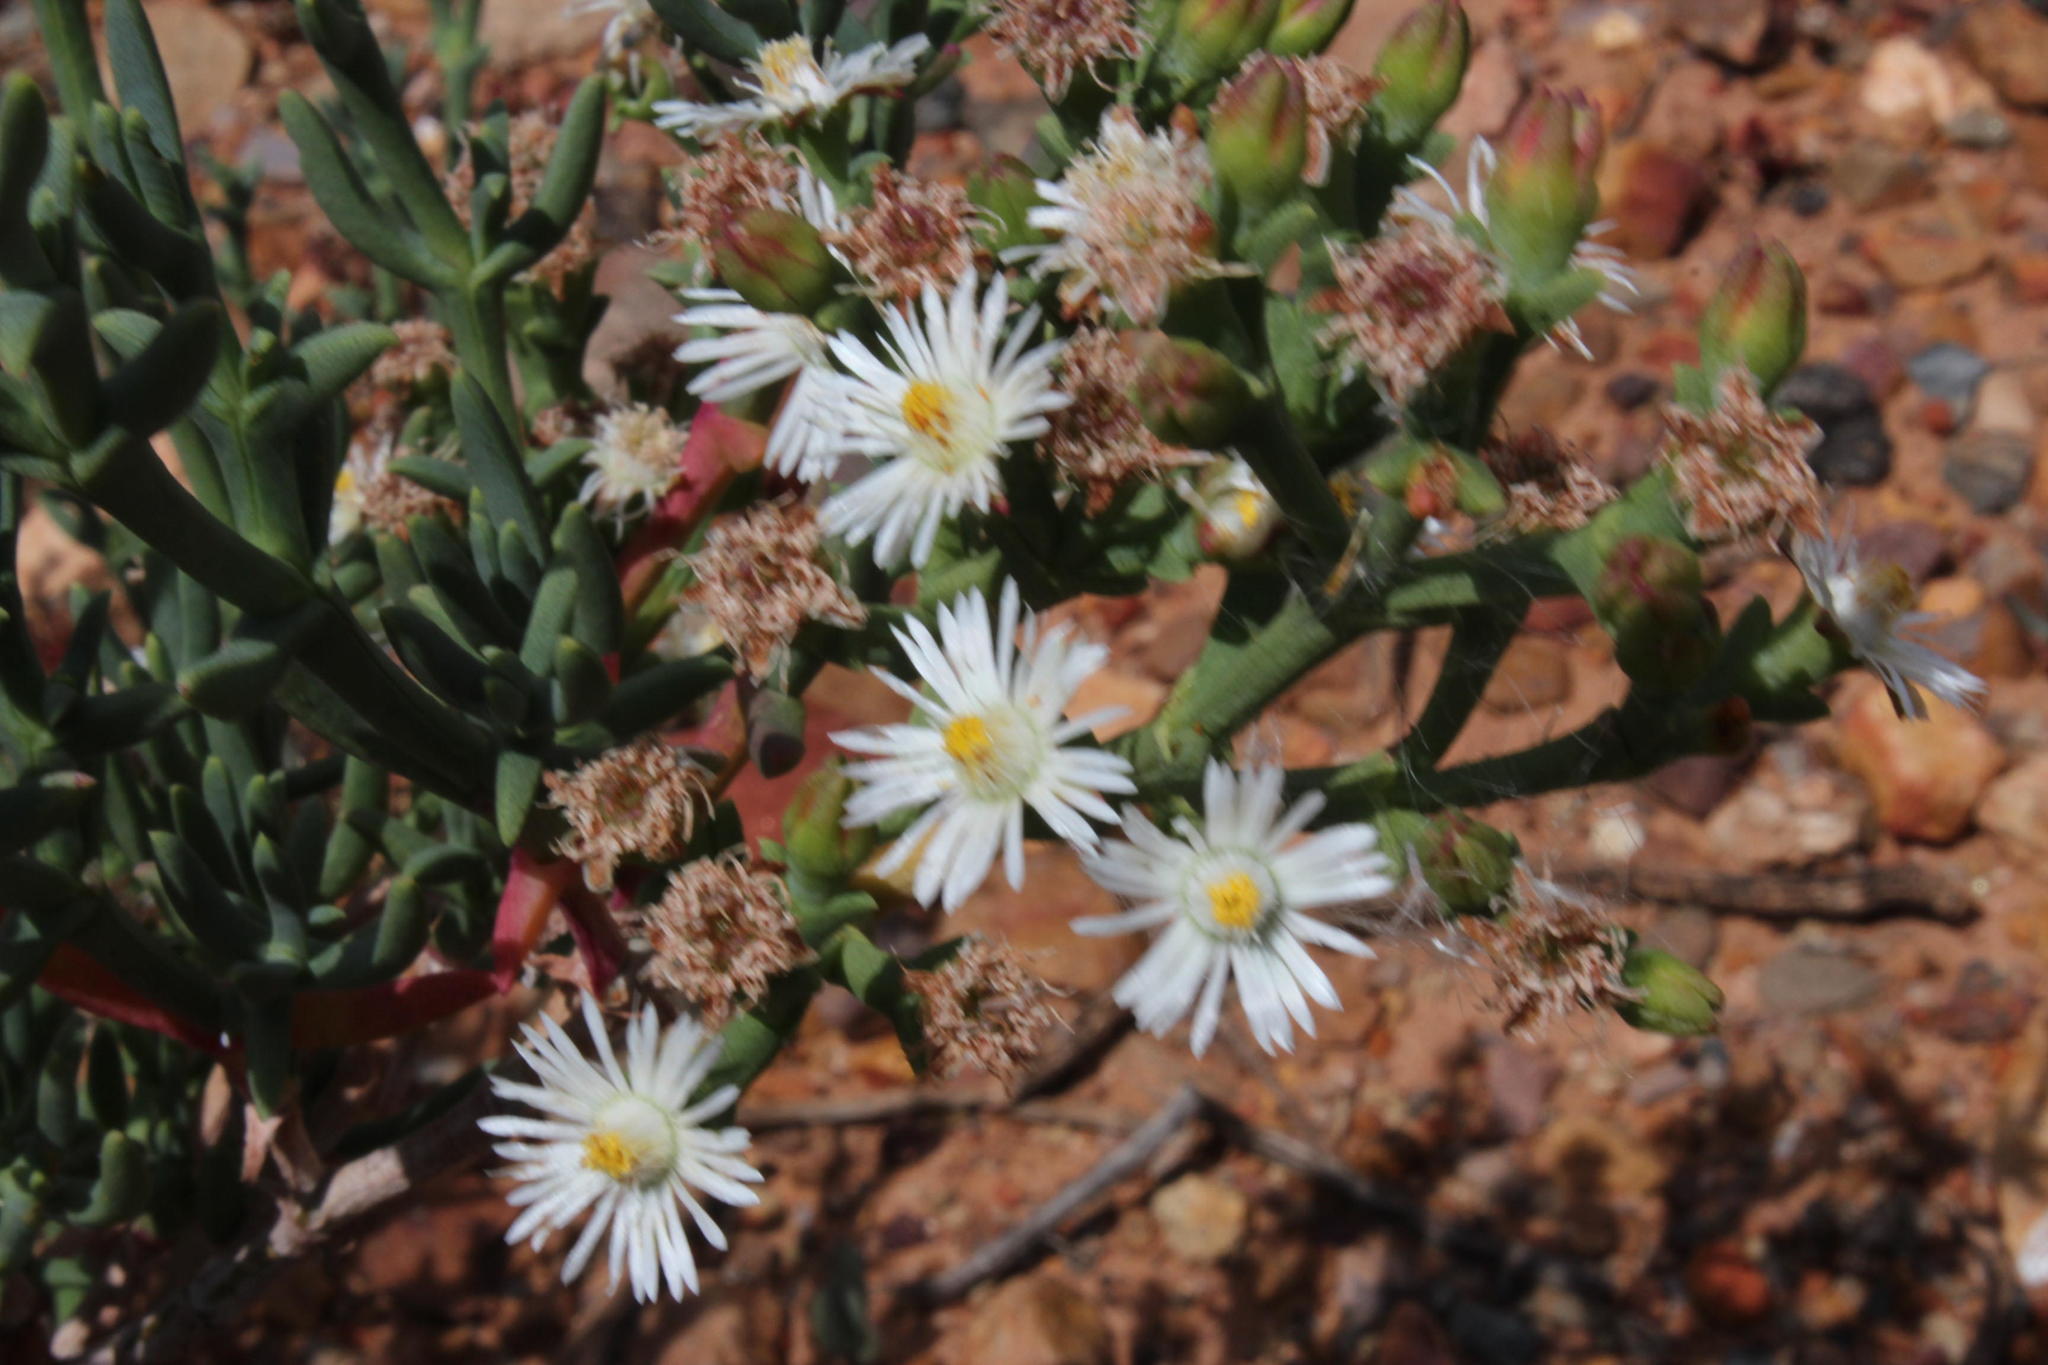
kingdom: Plantae
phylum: Tracheophyta
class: Magnoliopsida
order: Caryophyllales
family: Aizoaceae
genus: Ruschia
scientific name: Ruschia multiflora
